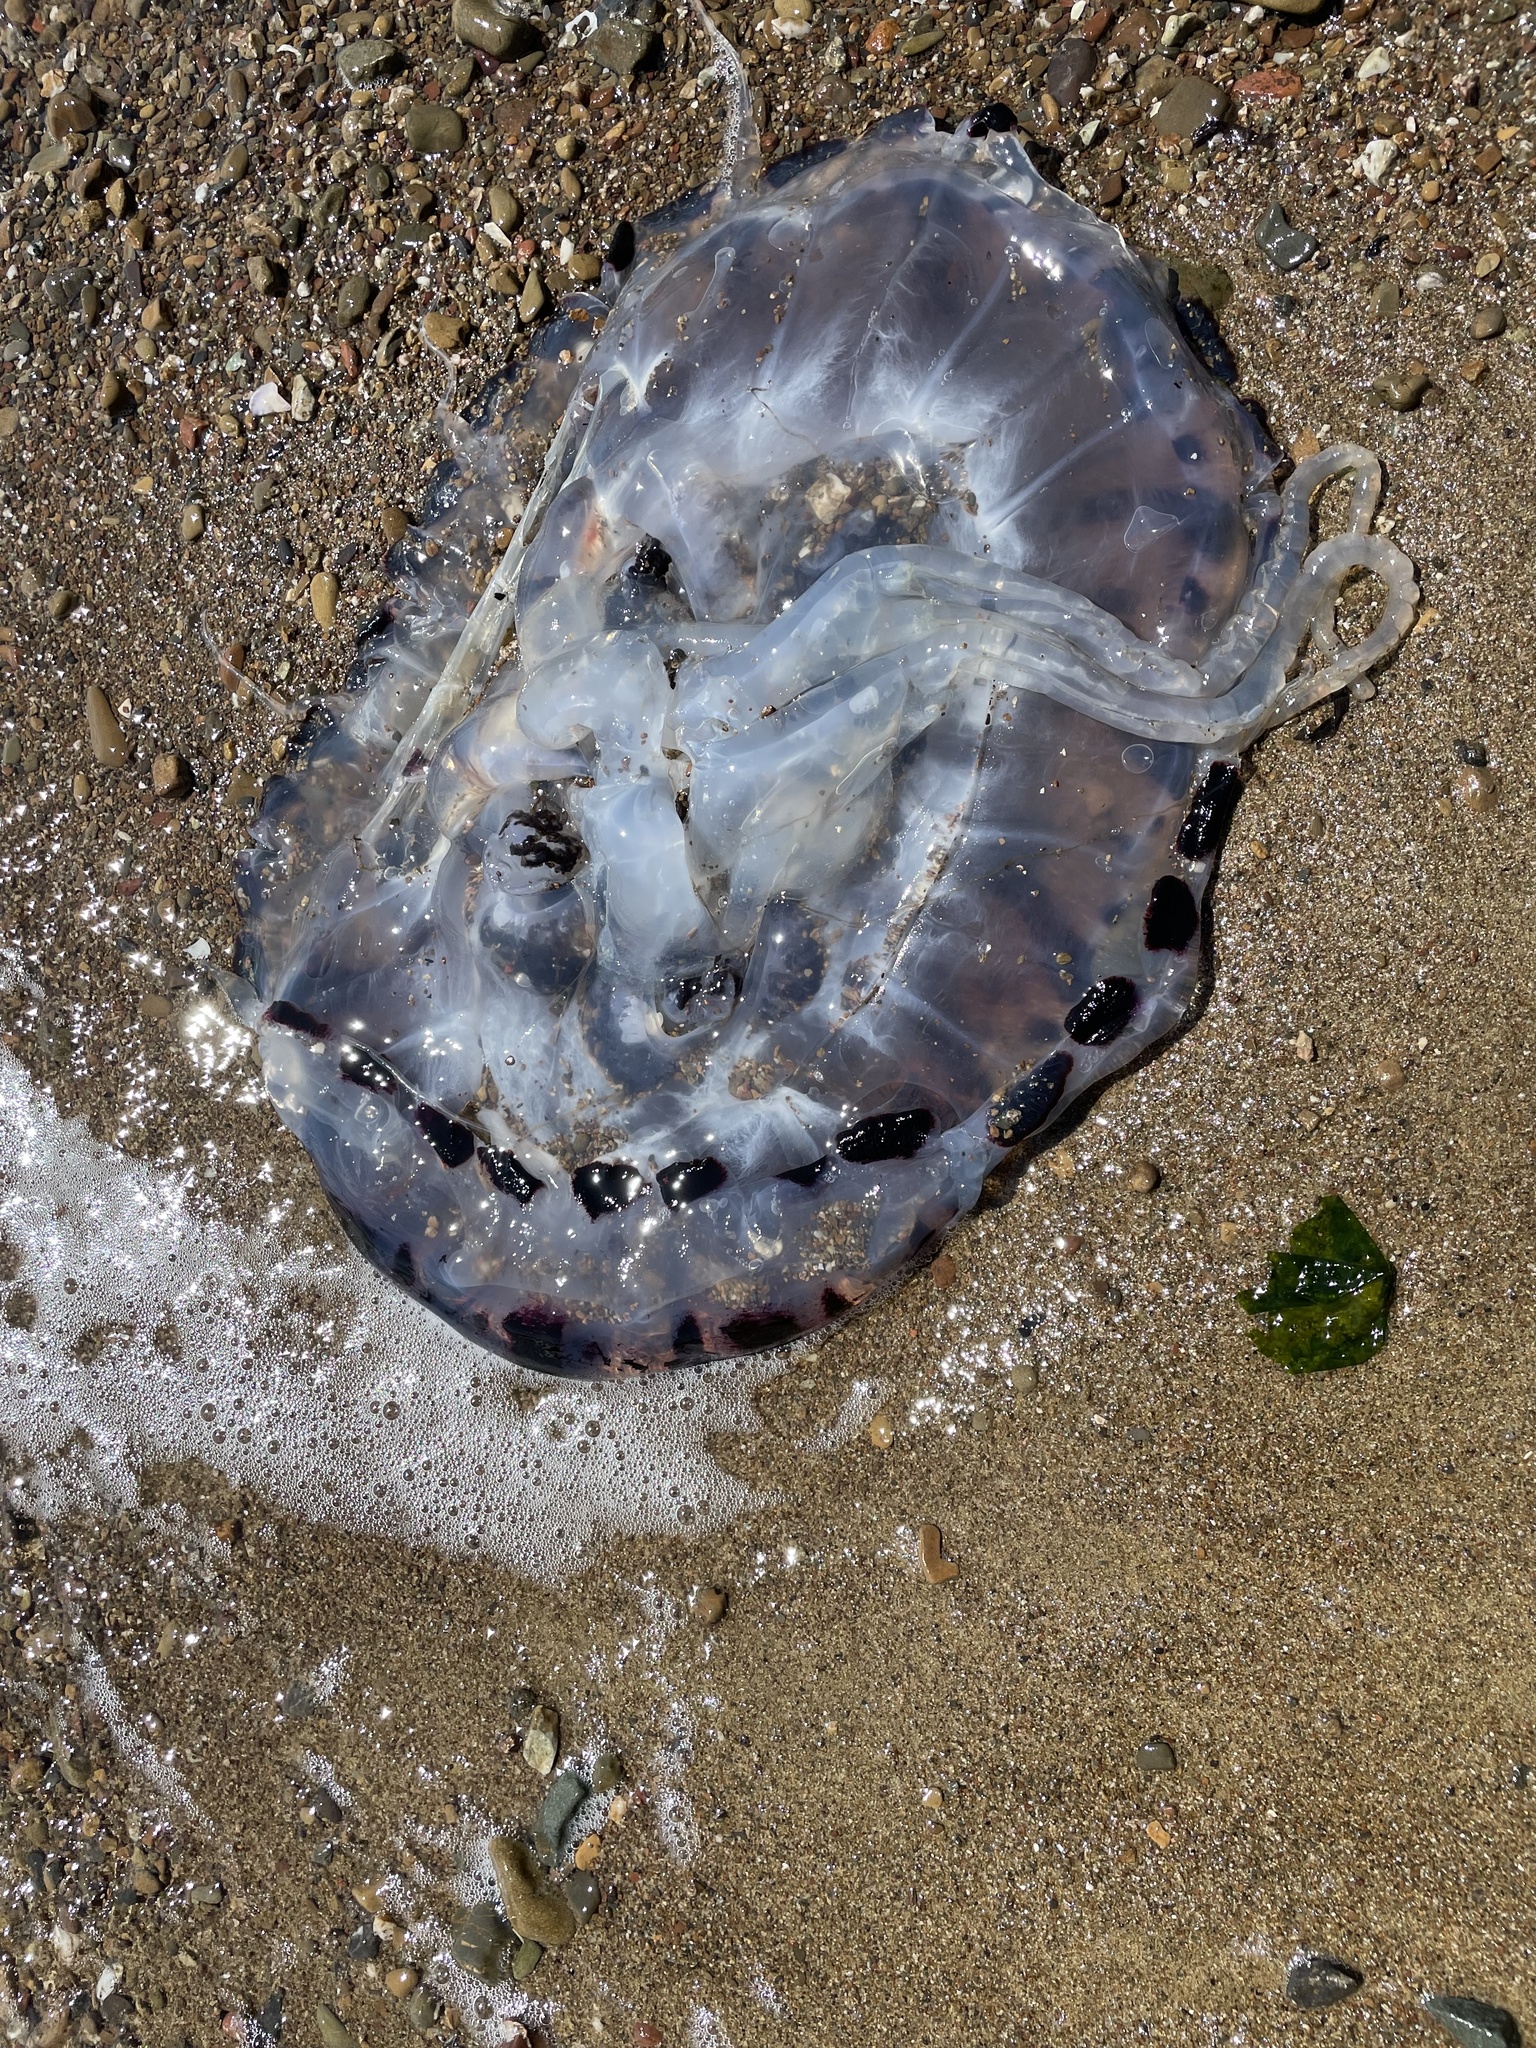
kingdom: Animalia
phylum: Cnidaria
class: Scyphozoa
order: Semaeostomeae
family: Pelagiidae
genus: Chrysaora
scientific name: Chrysaora colorata
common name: Purple-striped jellyfish
